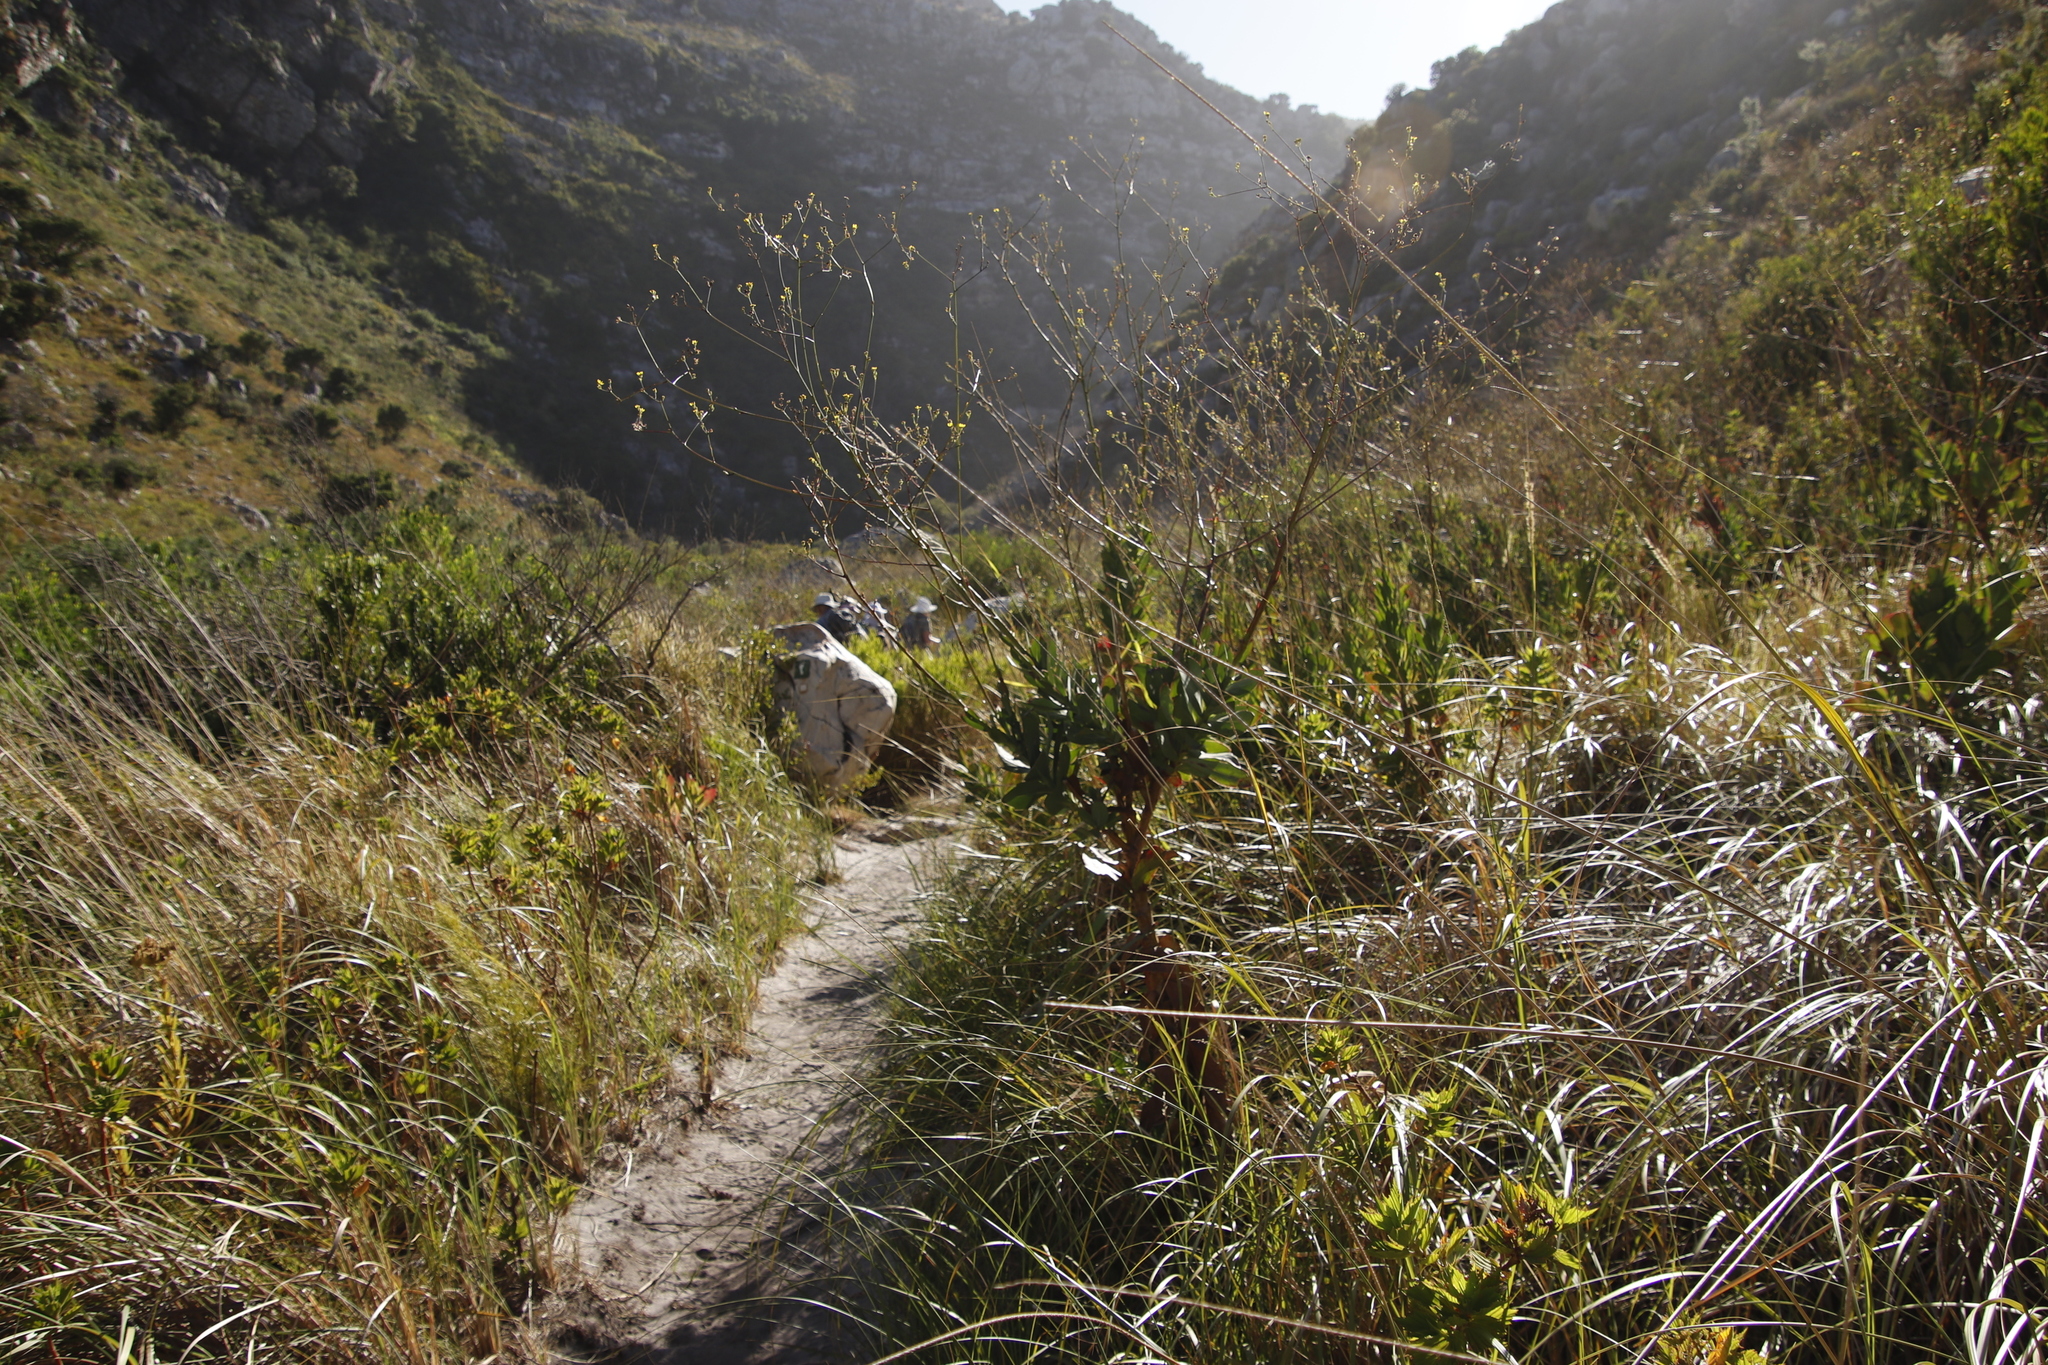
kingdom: Plantae
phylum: Tracheophyta
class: Magnoliopsida
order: Asterales
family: Asteraceae
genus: Othonna
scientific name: Othonna quinquedentata
